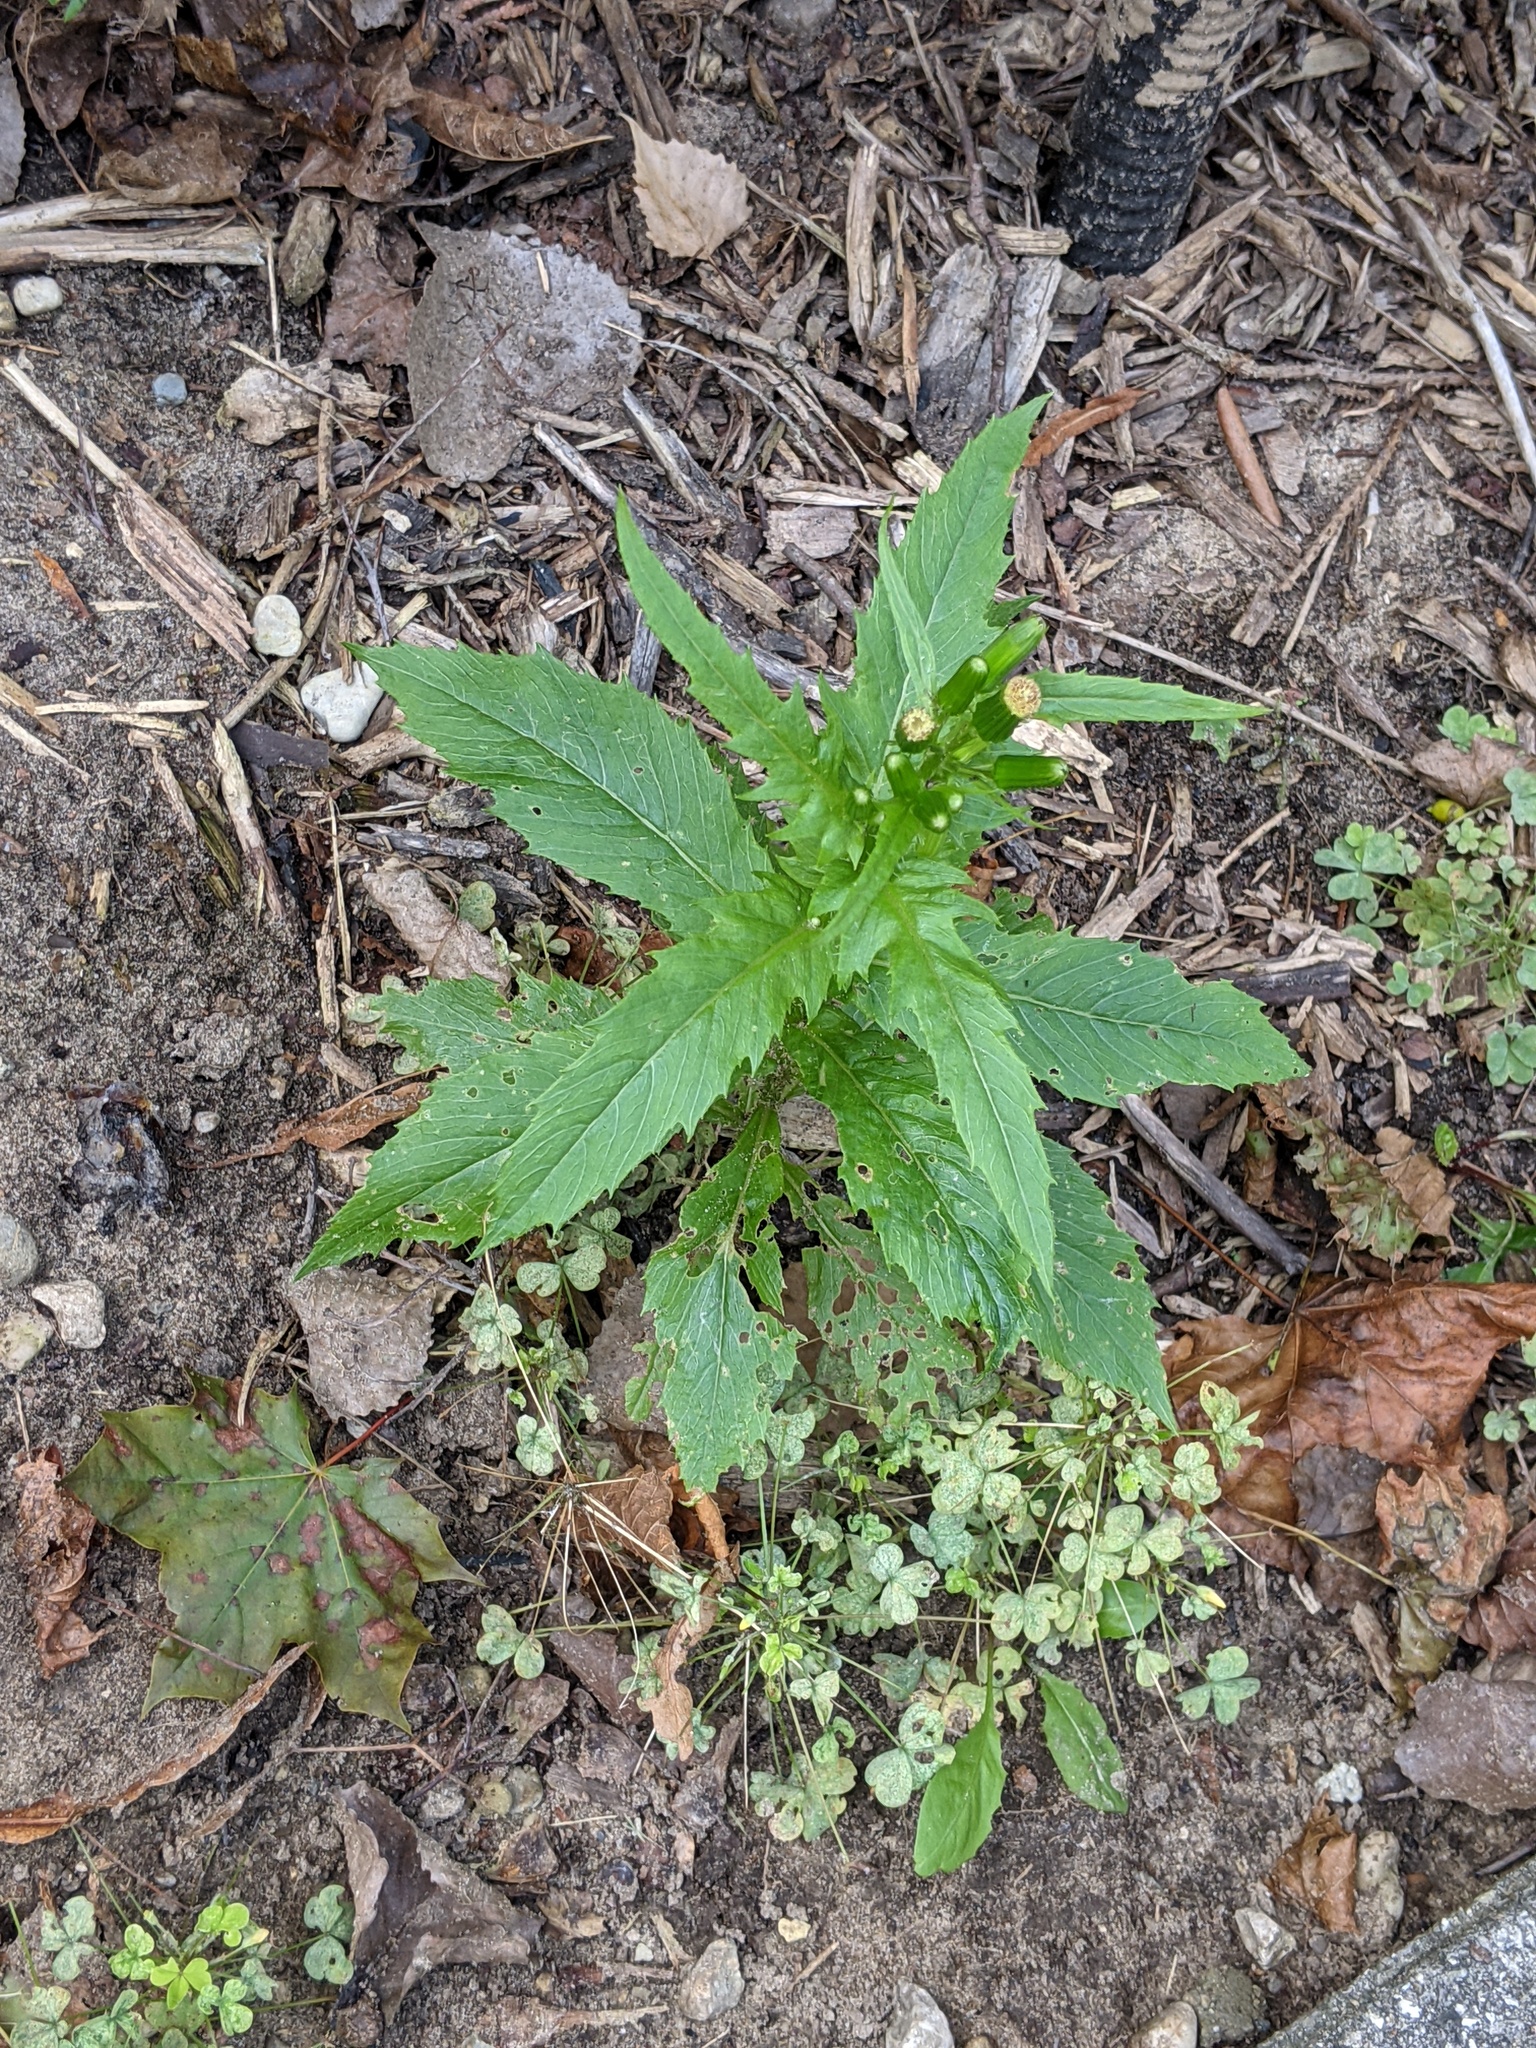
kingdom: Plantae
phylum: Tracheophyta
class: Magnoliopsida
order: Asterales
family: Asteraceae
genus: Erechtites
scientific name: Erechtites hieraciifolius
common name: American burnweed
